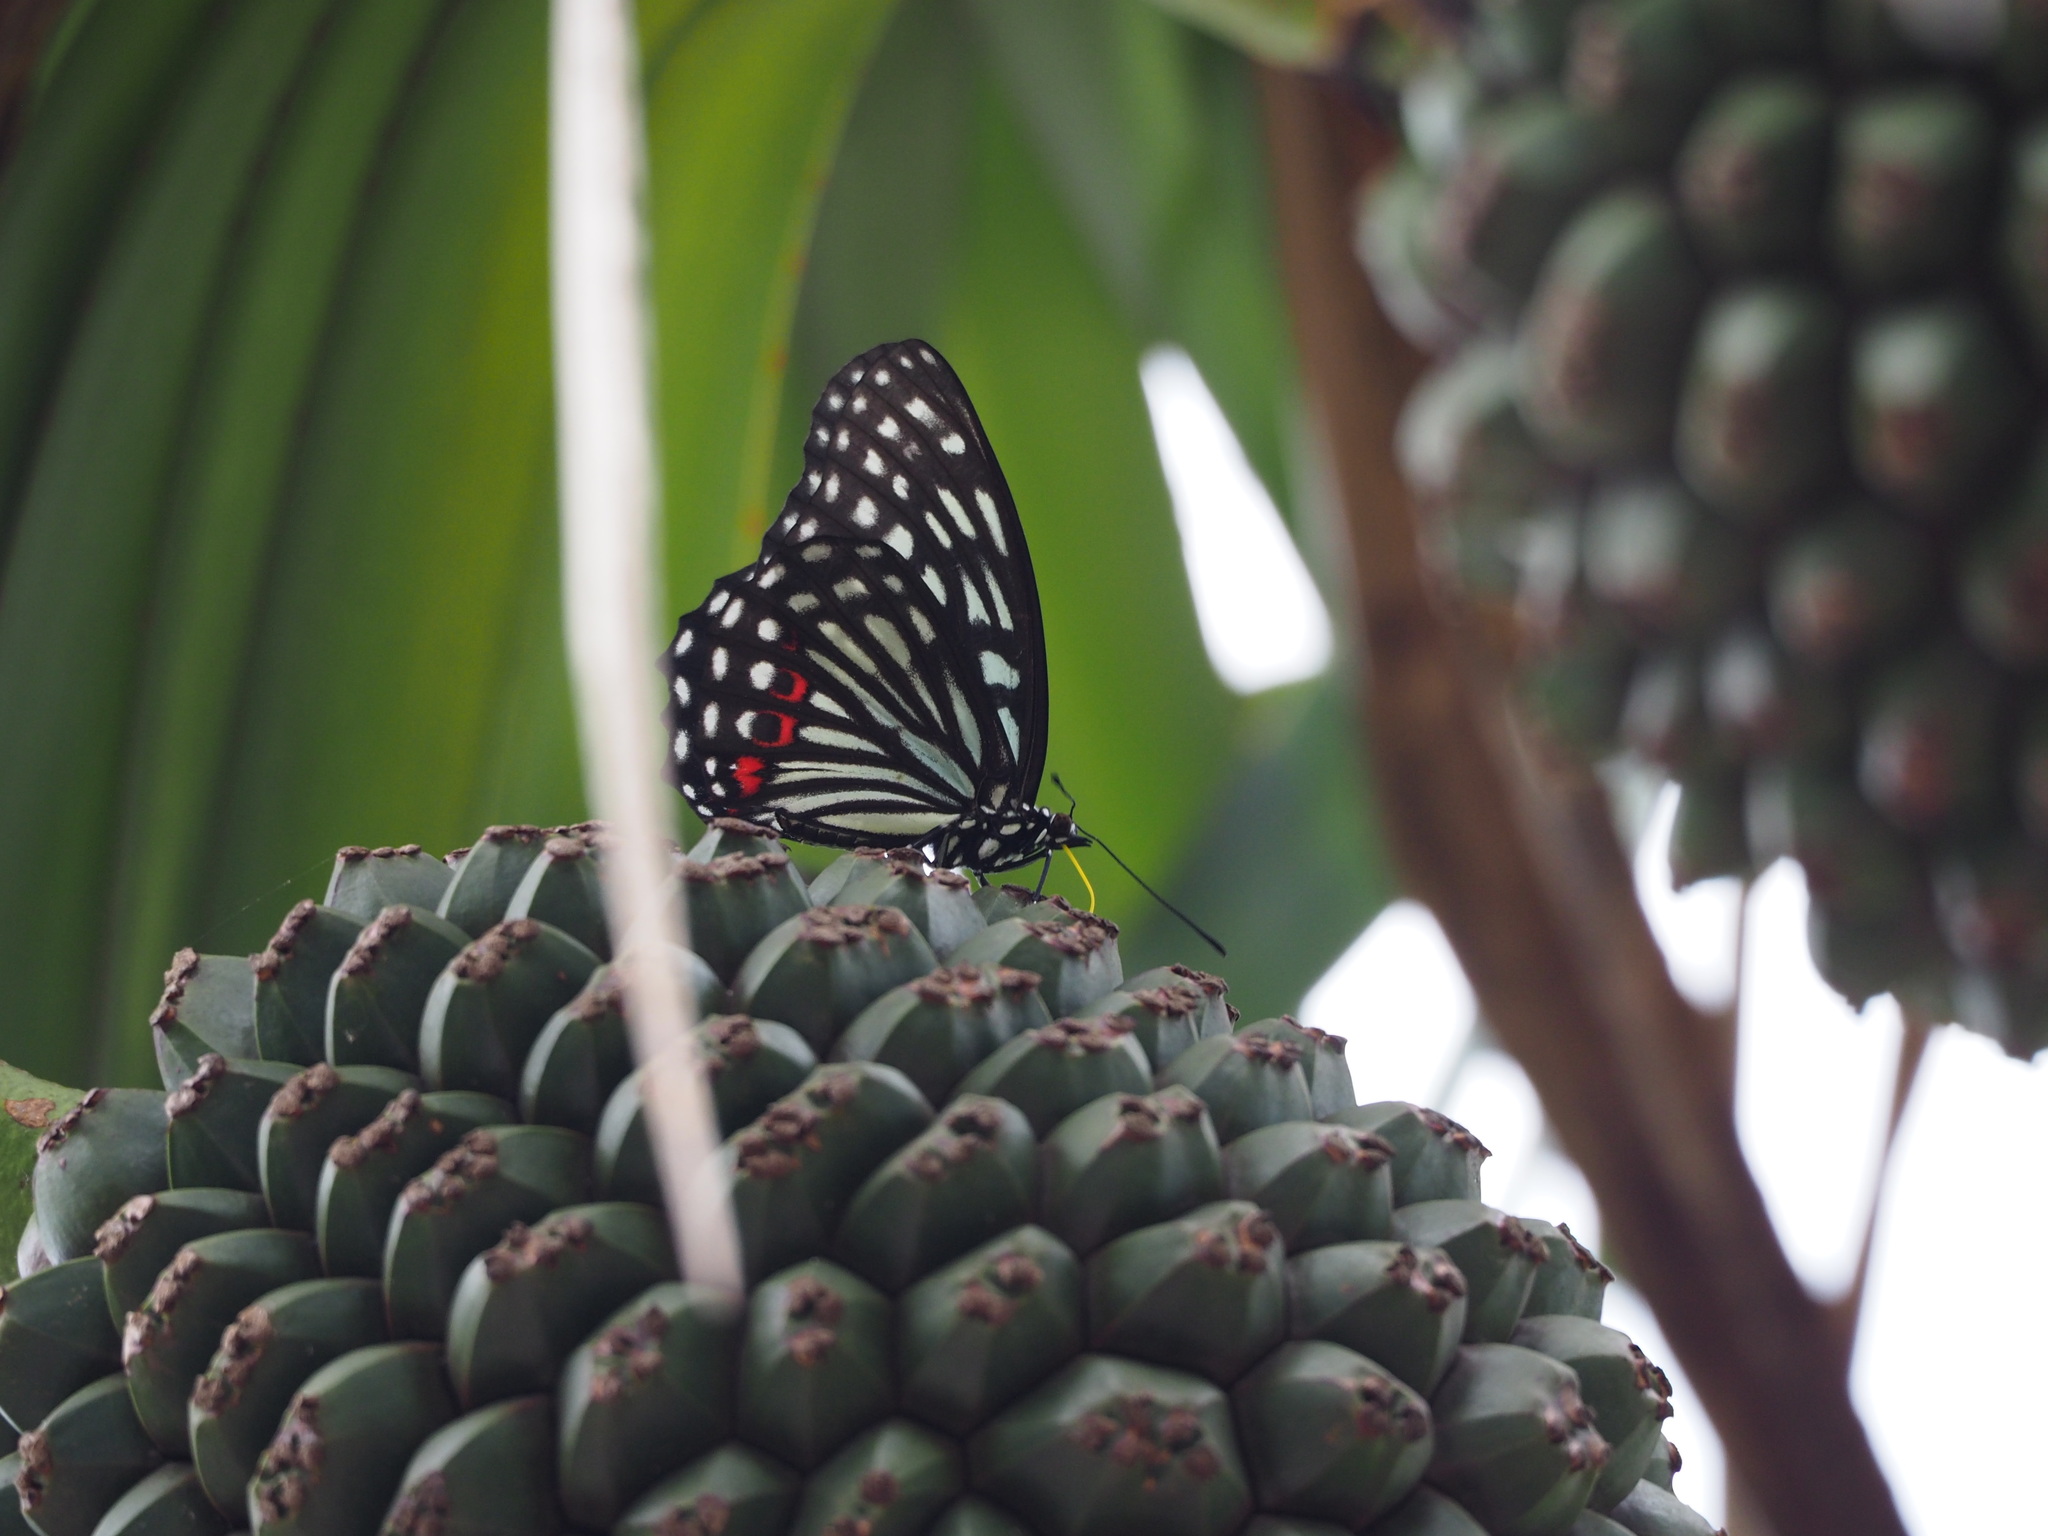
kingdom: Animalia
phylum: Arthropoda
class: Insecta
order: Lepidoptera
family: Nymphalidae
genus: Hestina
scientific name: Hestina assimilis
